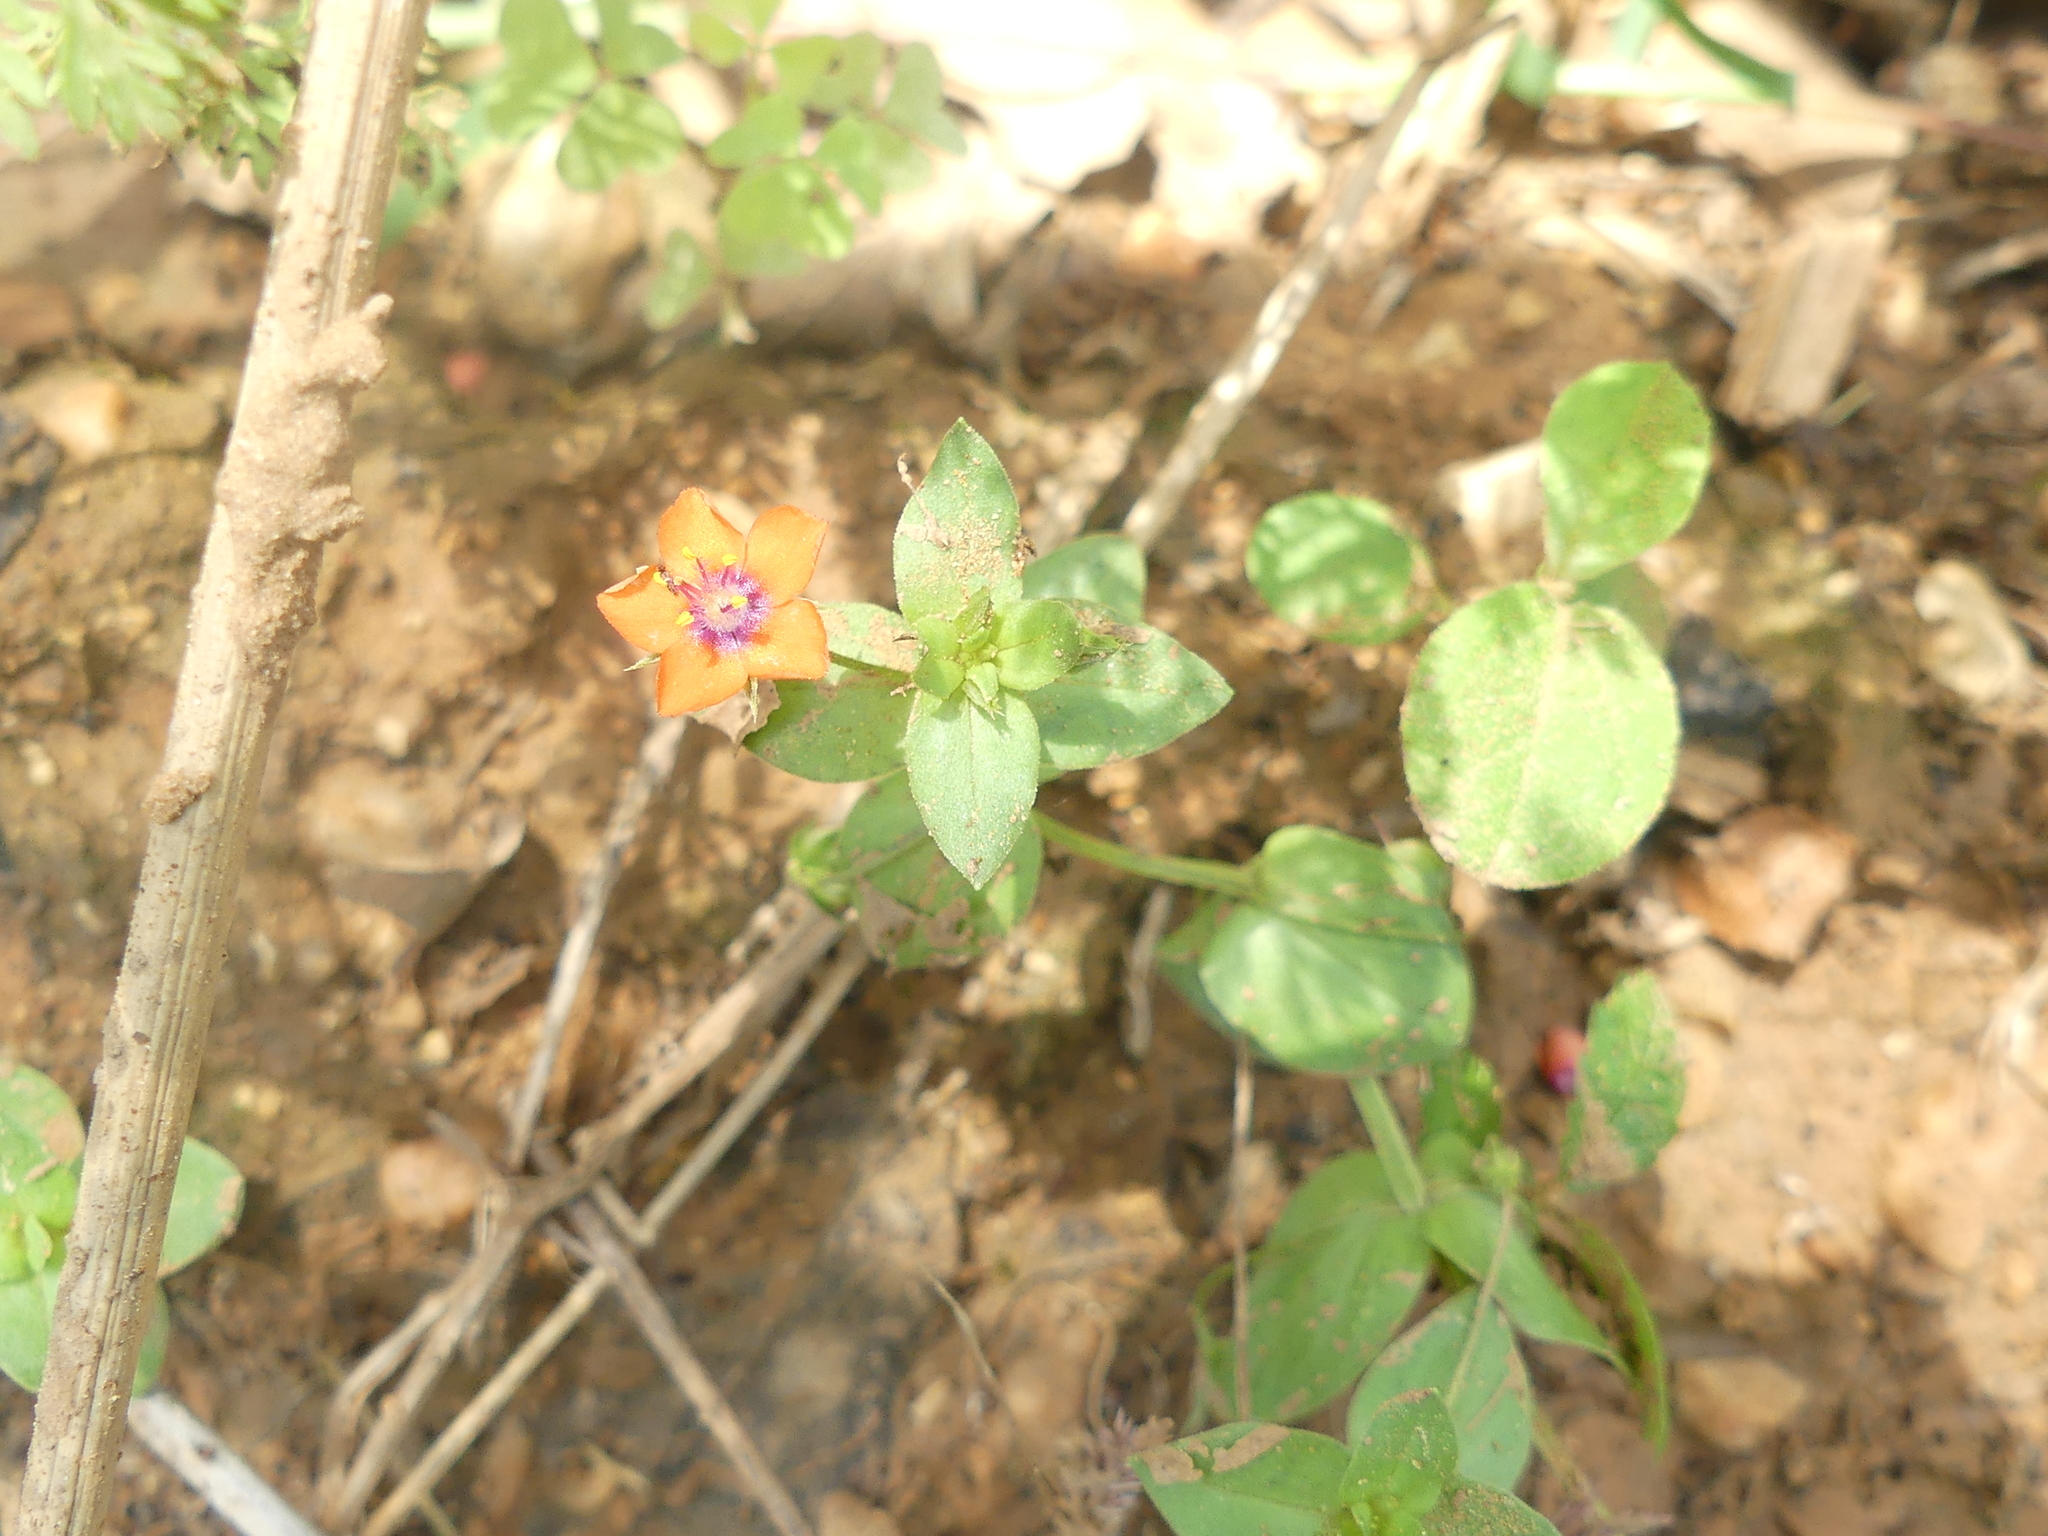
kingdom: Plantae
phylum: Tracheophyta
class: Magnoliopsida
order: Ericales
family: Primulaceae
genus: Lysimachia
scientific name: Lysimachia arvensis
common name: Scarlet pimpernel
